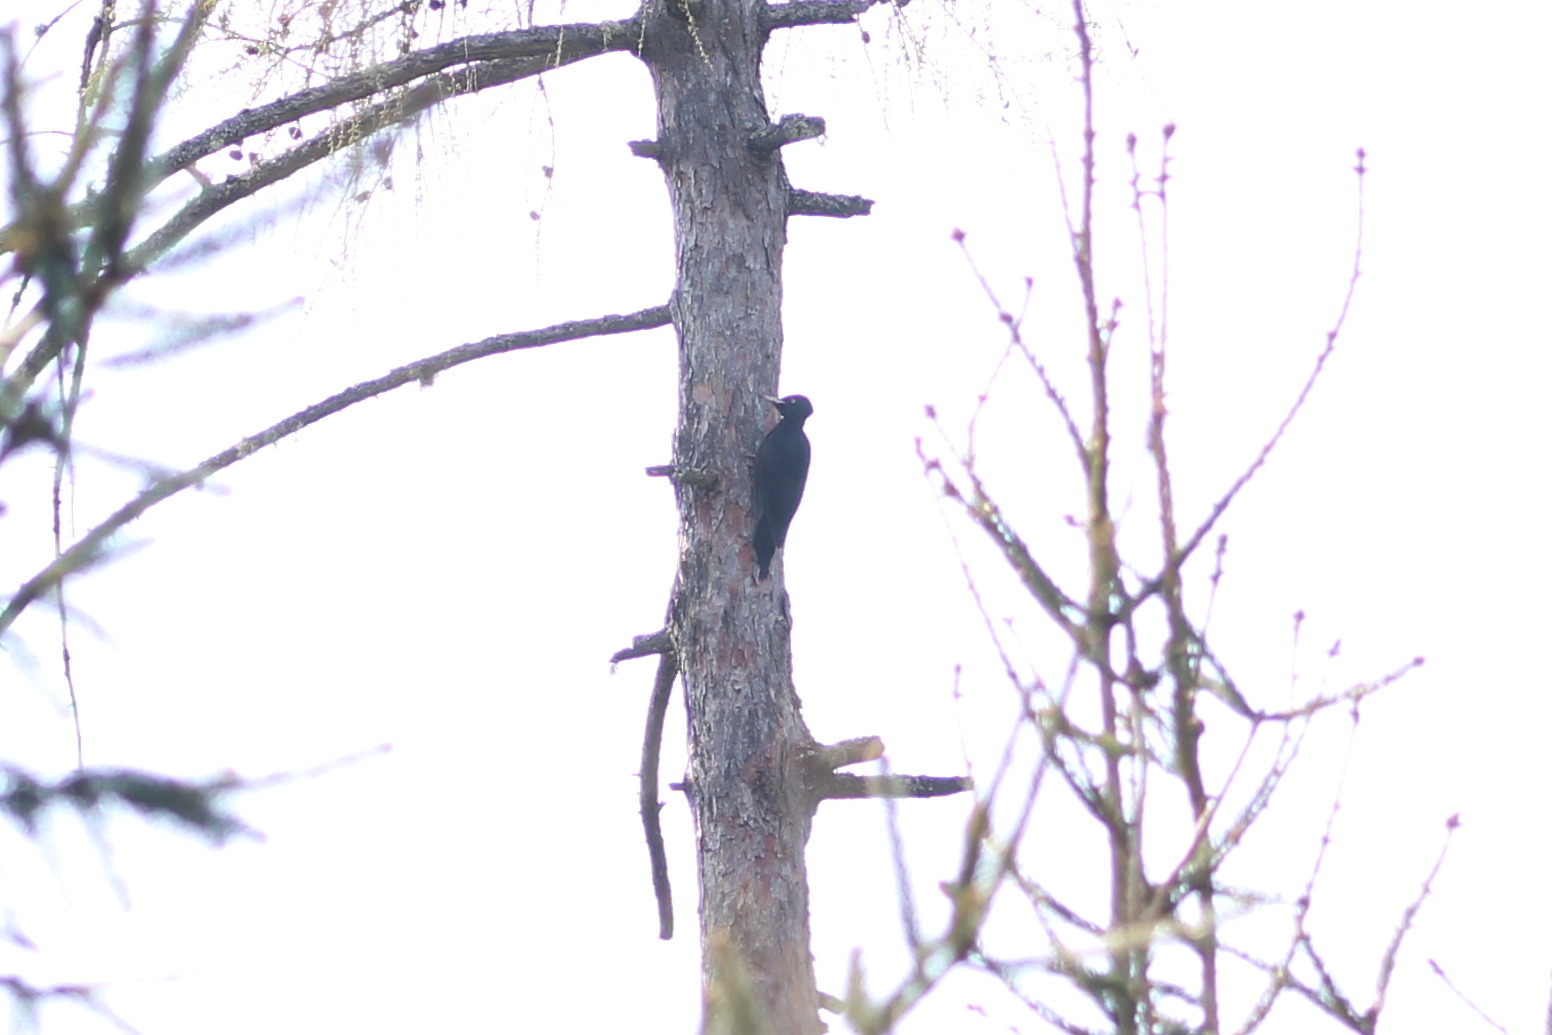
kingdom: Animalia
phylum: Chordata
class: Aves
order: Piciformes
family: Picidae
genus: Dryocopus
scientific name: Dryocopus martius
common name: Black woodpecker
